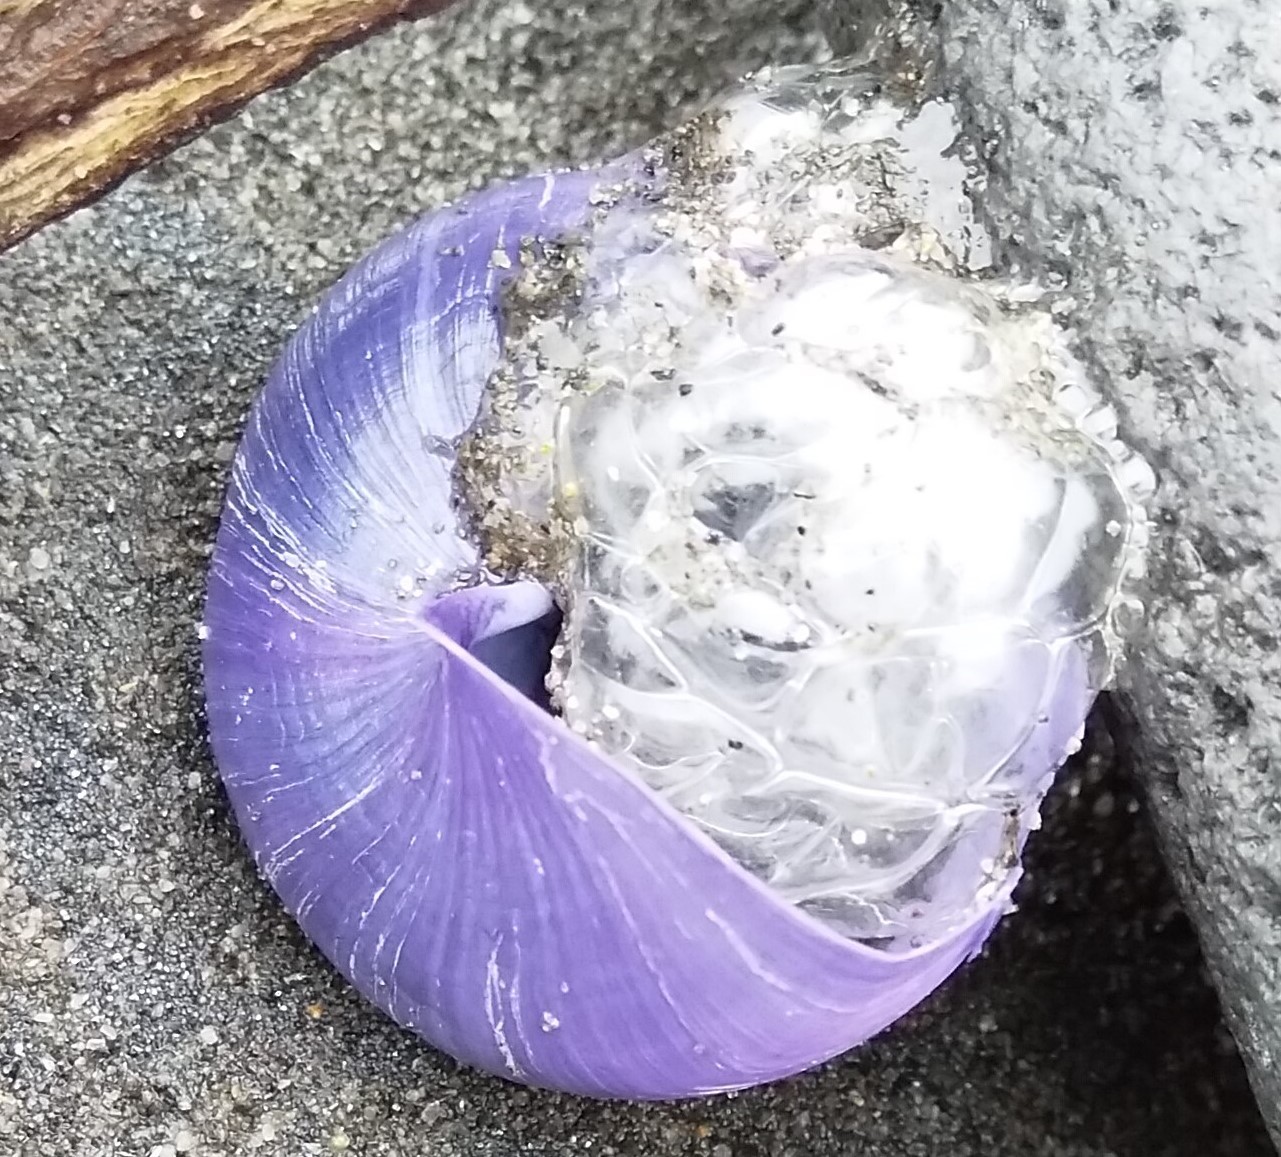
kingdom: Animalia
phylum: Mollusca
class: Gastropoda
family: Epitoniidae
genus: Janthina
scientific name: Janthina janthina
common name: Common janthina
